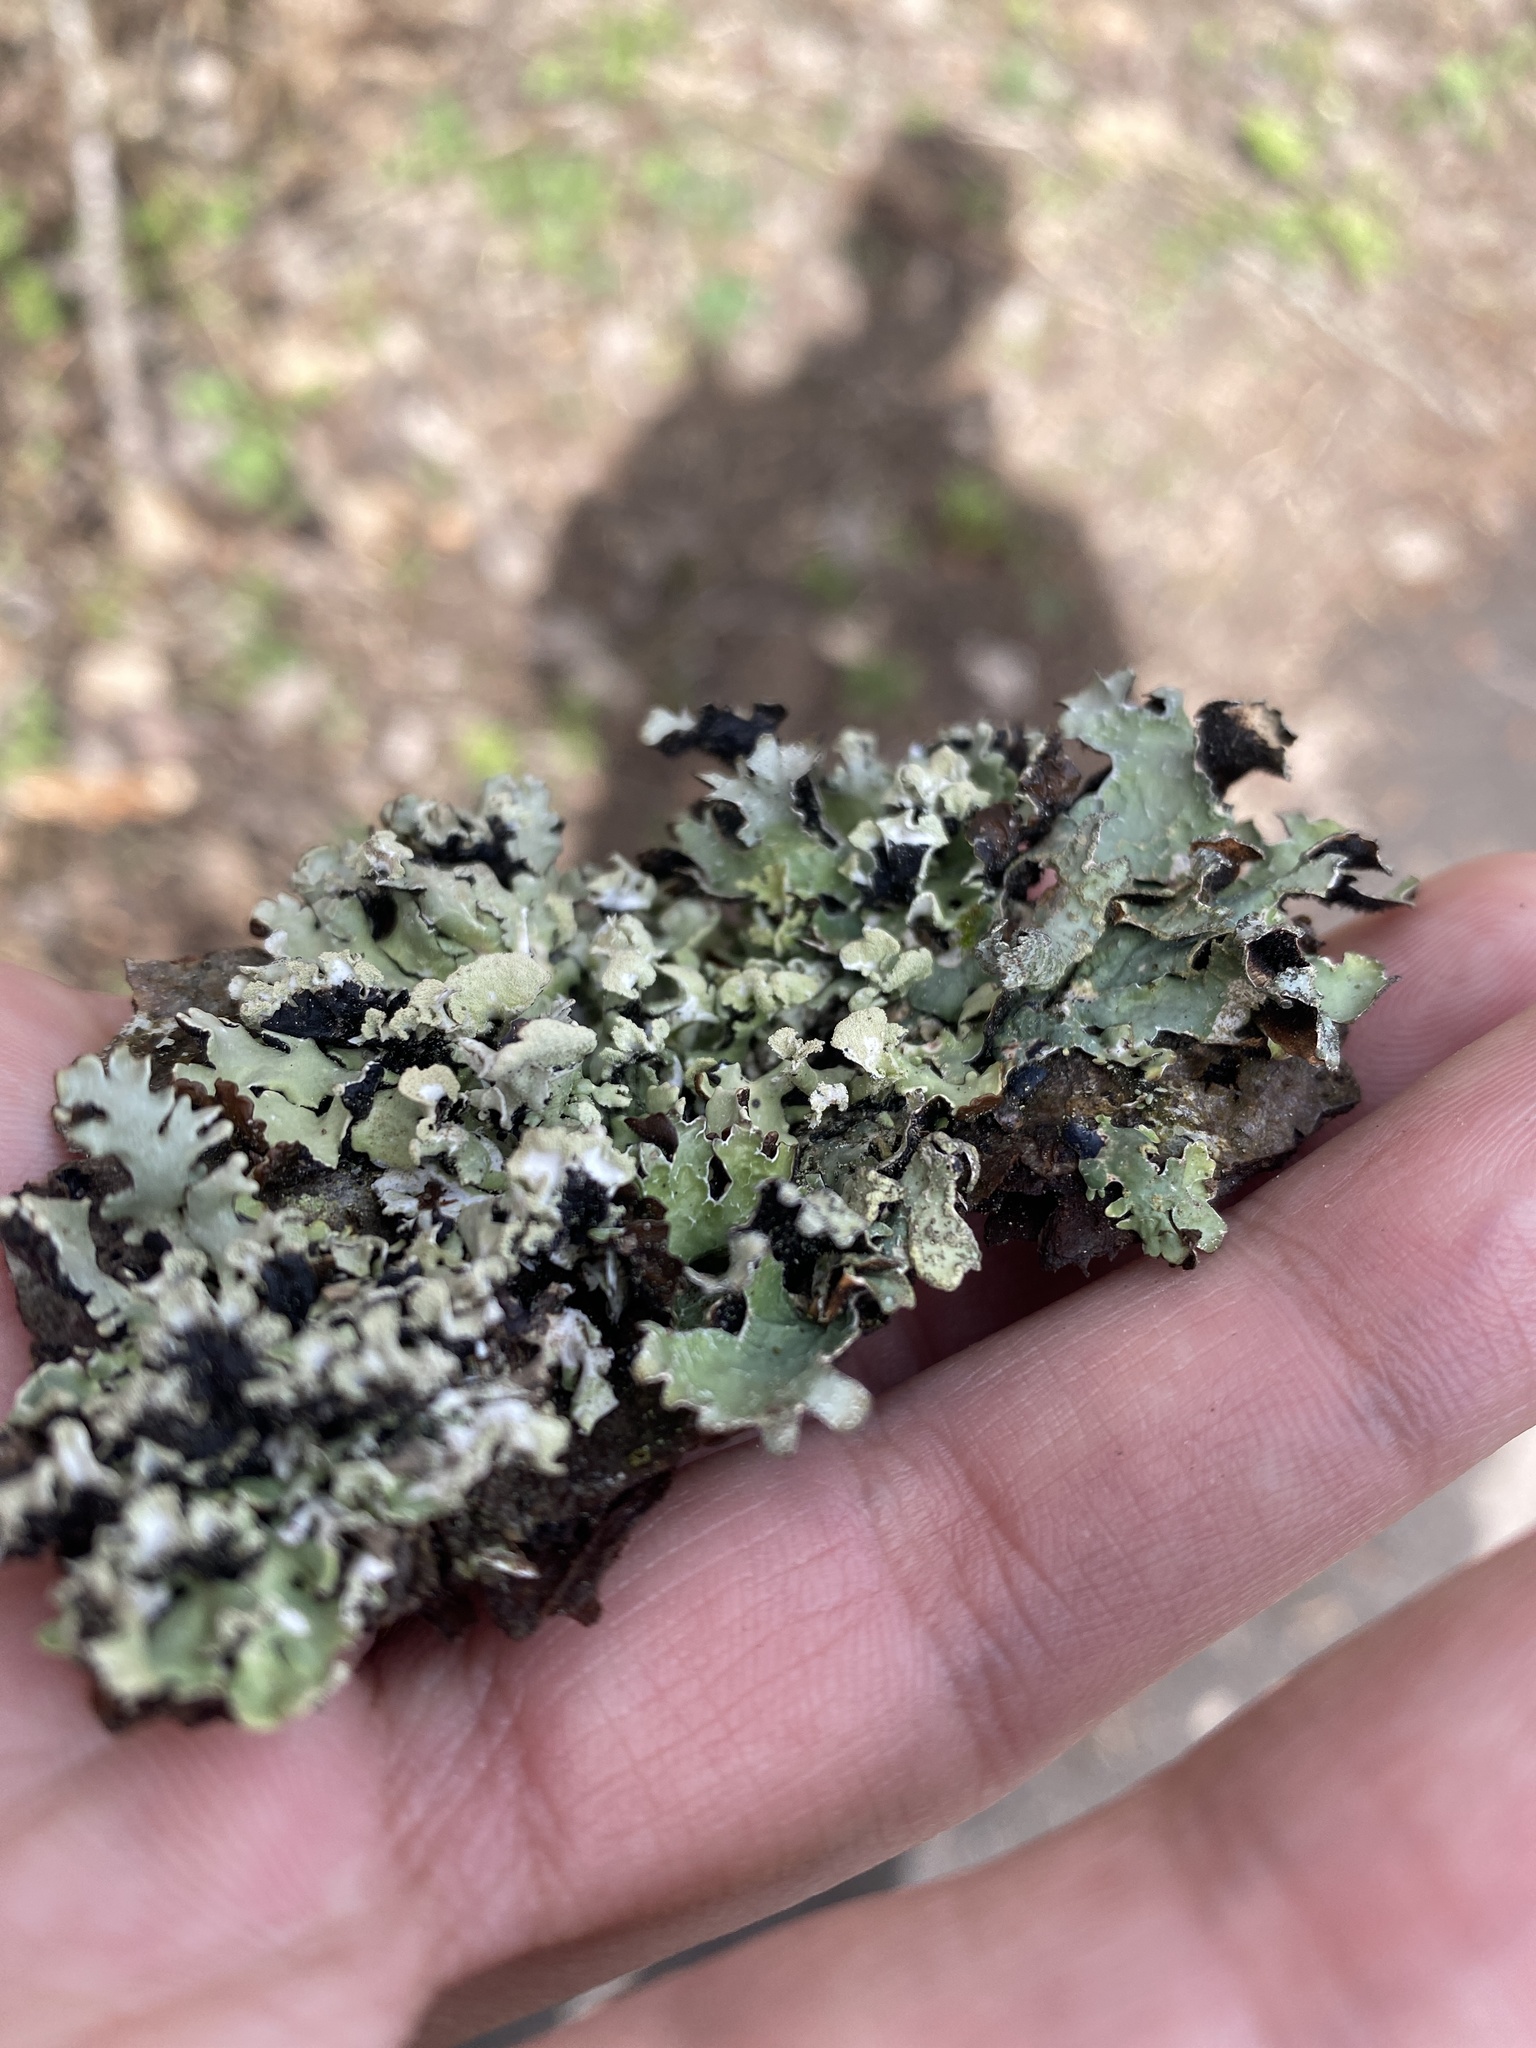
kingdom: Fungi
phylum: Ascomycota
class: Lecanoromycetes
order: Lecanorales
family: Parmeliaceae
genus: Parmelia
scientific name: Parmelia sulcata
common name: Netted shield lichen
